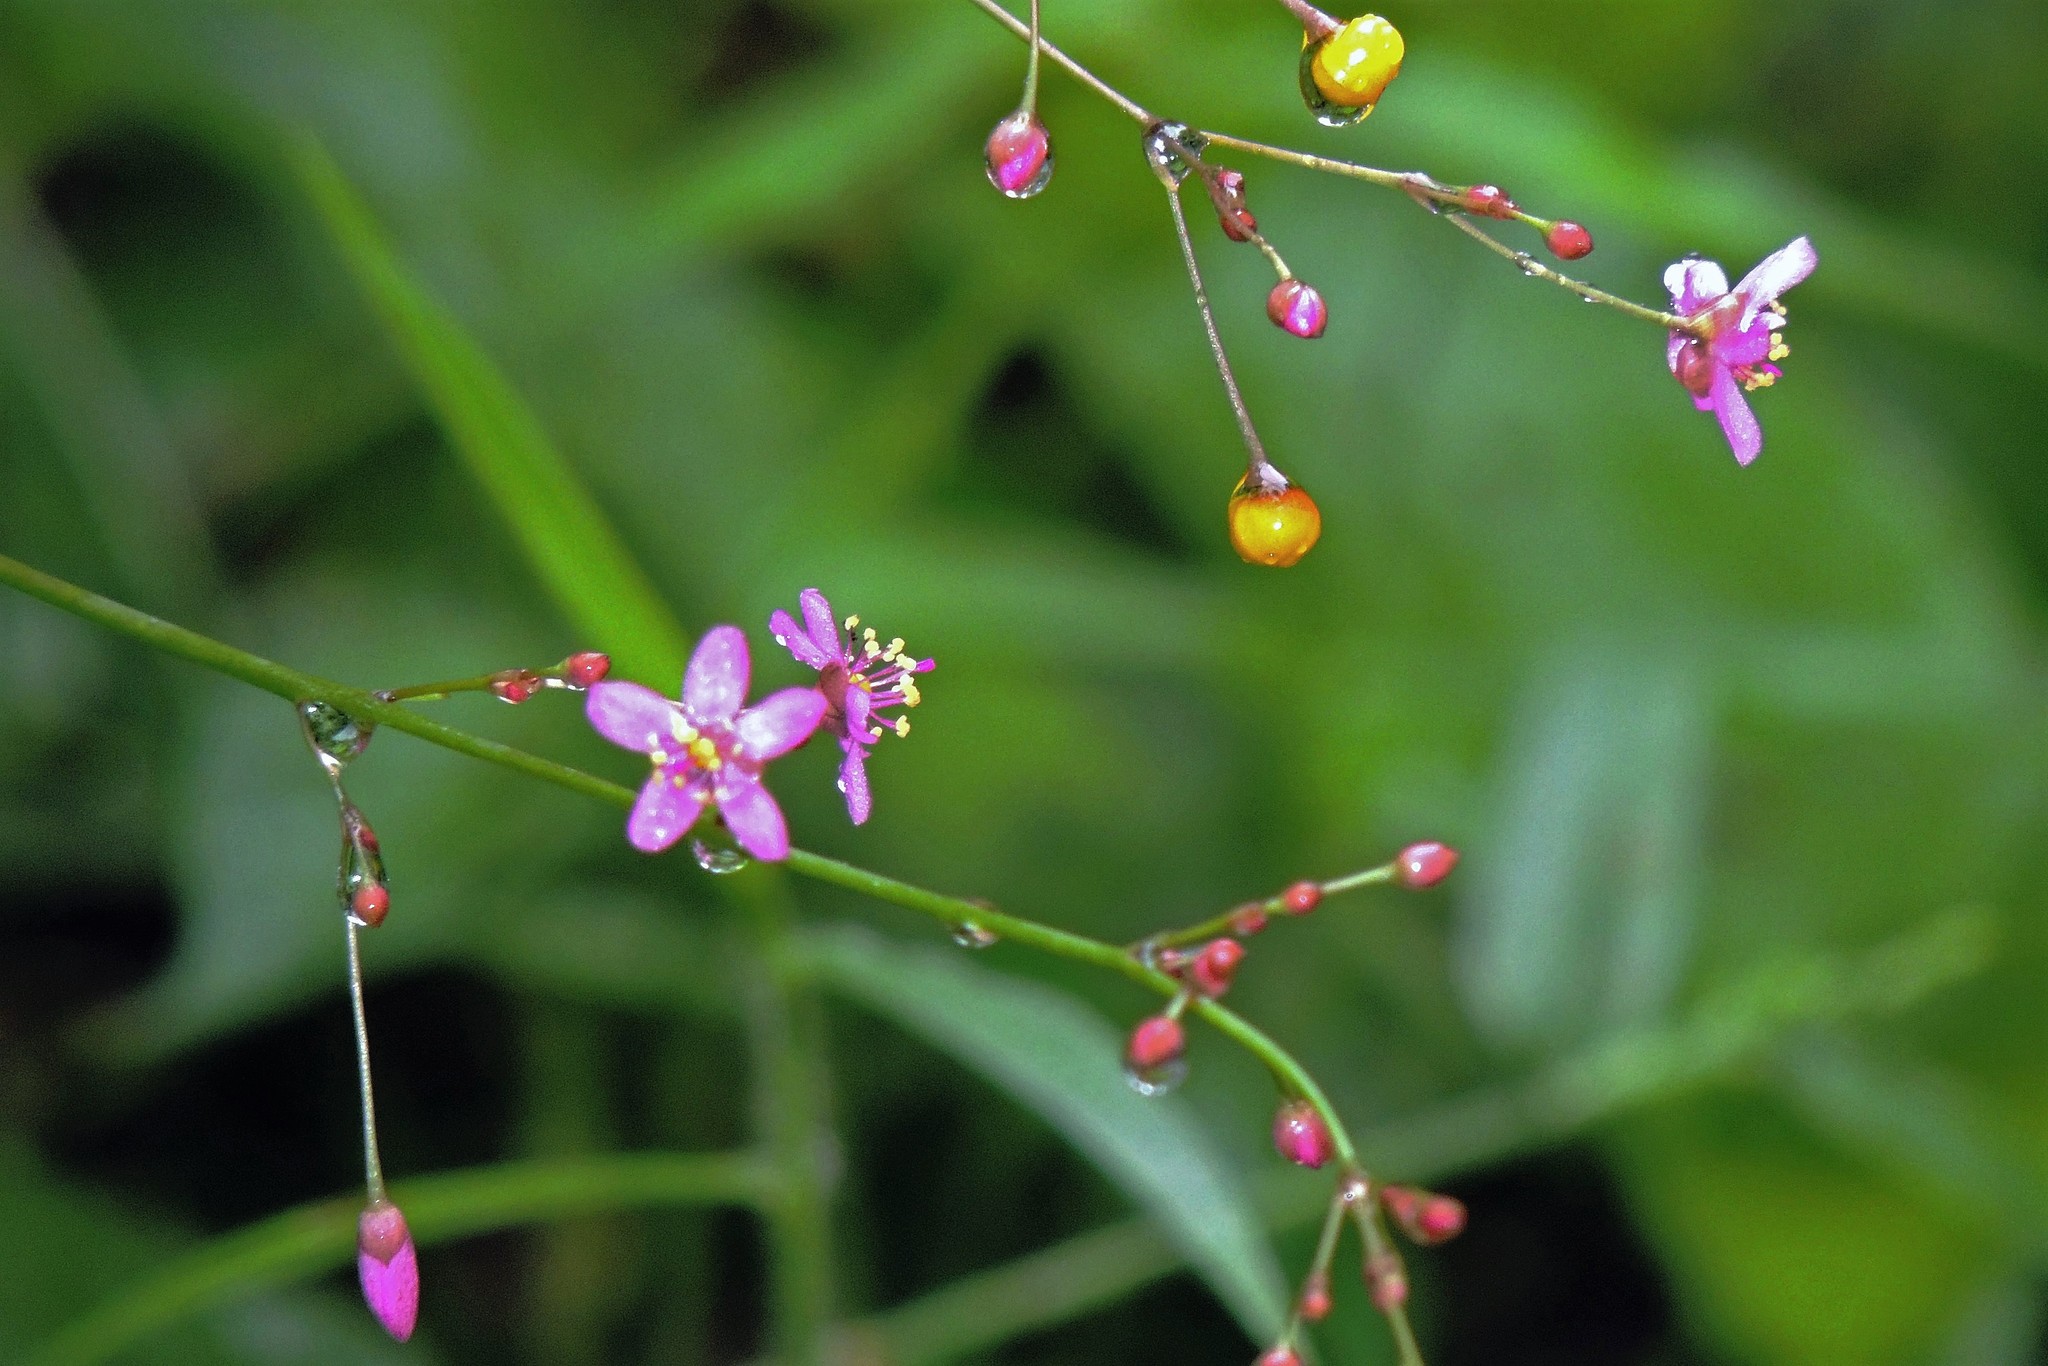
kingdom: Plantae
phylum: Tracheophyta
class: Magnoliopsida
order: Caryophyllales
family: Talinaceae
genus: Talinum
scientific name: Talinum paniculatum
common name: Jewels of opar
